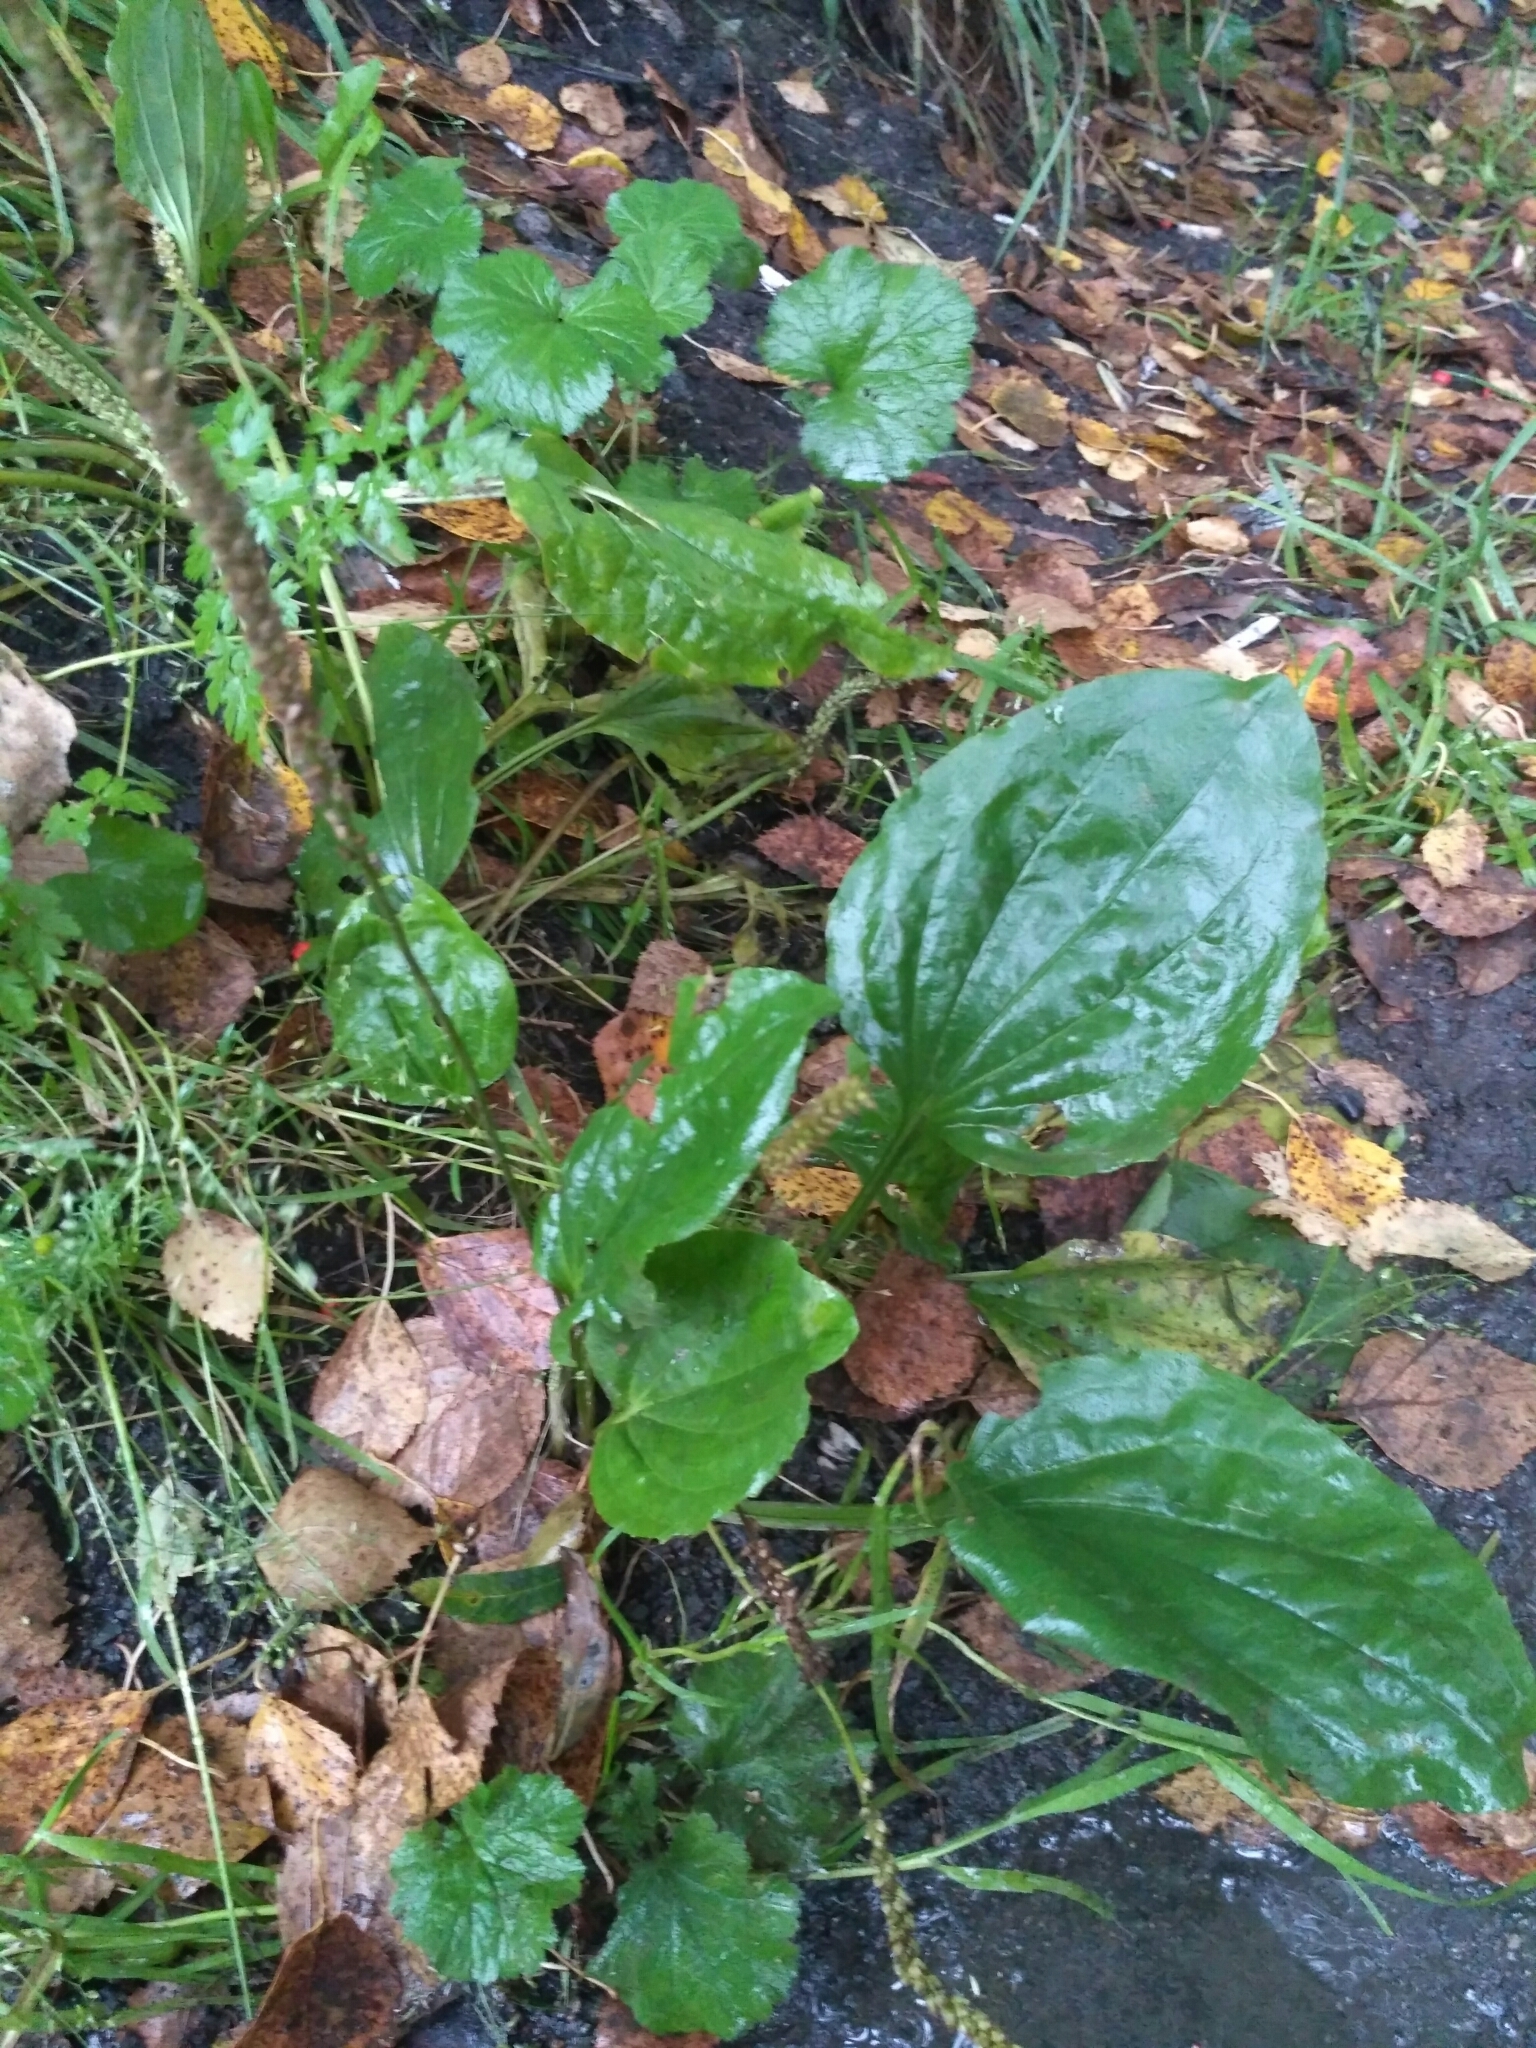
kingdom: Plantae
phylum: Tracheophyta
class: Magnoliopsida
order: Lamiales
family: Plantaginaceae
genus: Plantago
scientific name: Plantago major
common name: Common plantain
